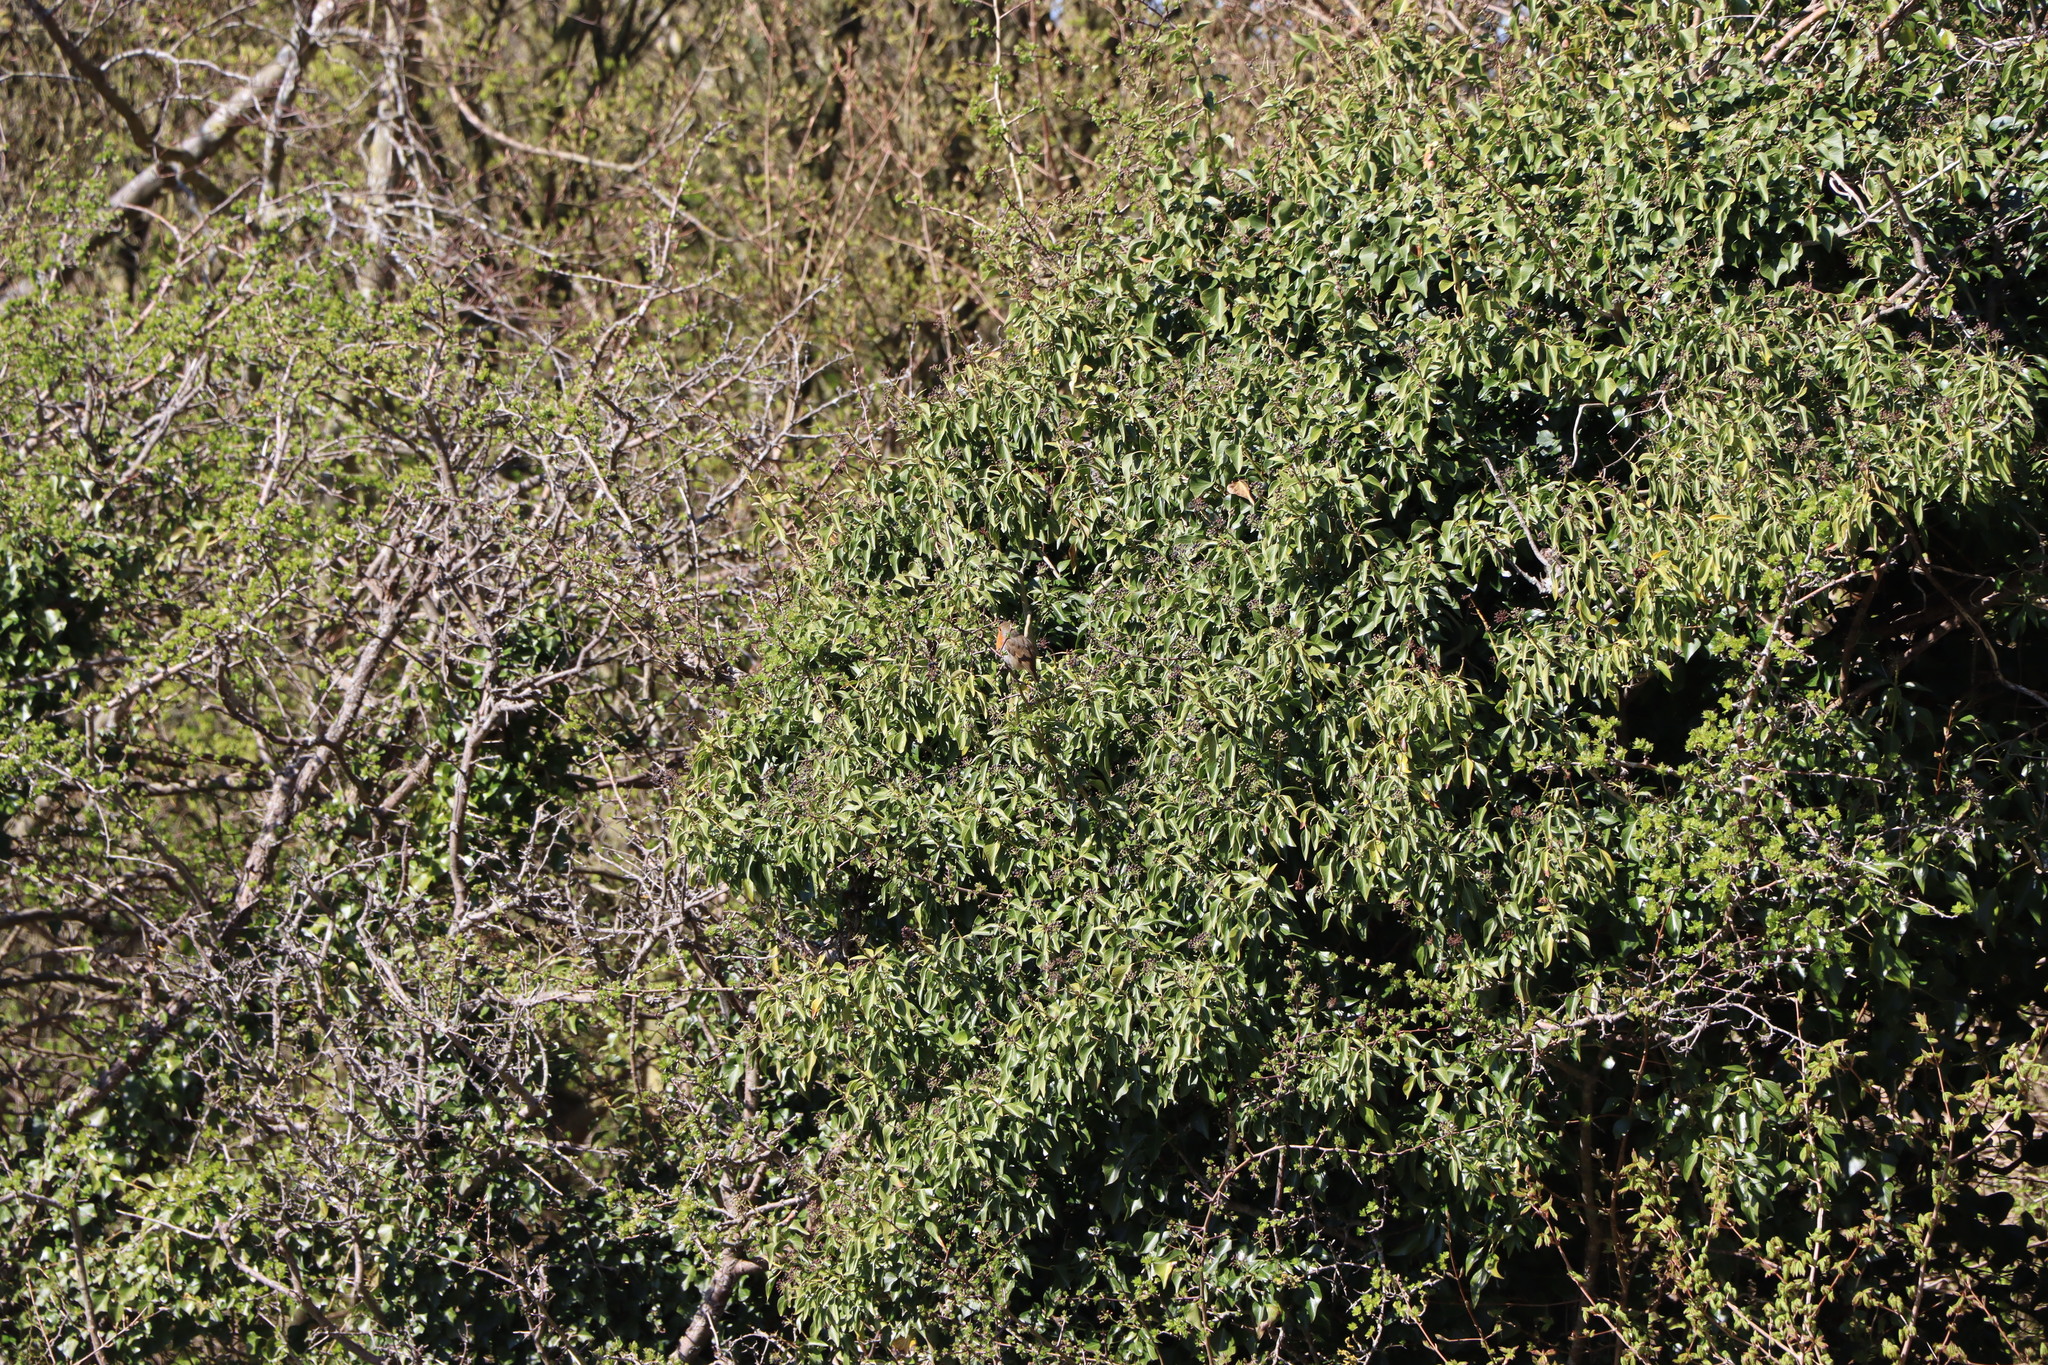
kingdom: Animalia
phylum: Chordata
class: Aves
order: Passeriformes
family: Muscicapidae
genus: Erithacus
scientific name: Erithacus rubecula
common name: European robin
